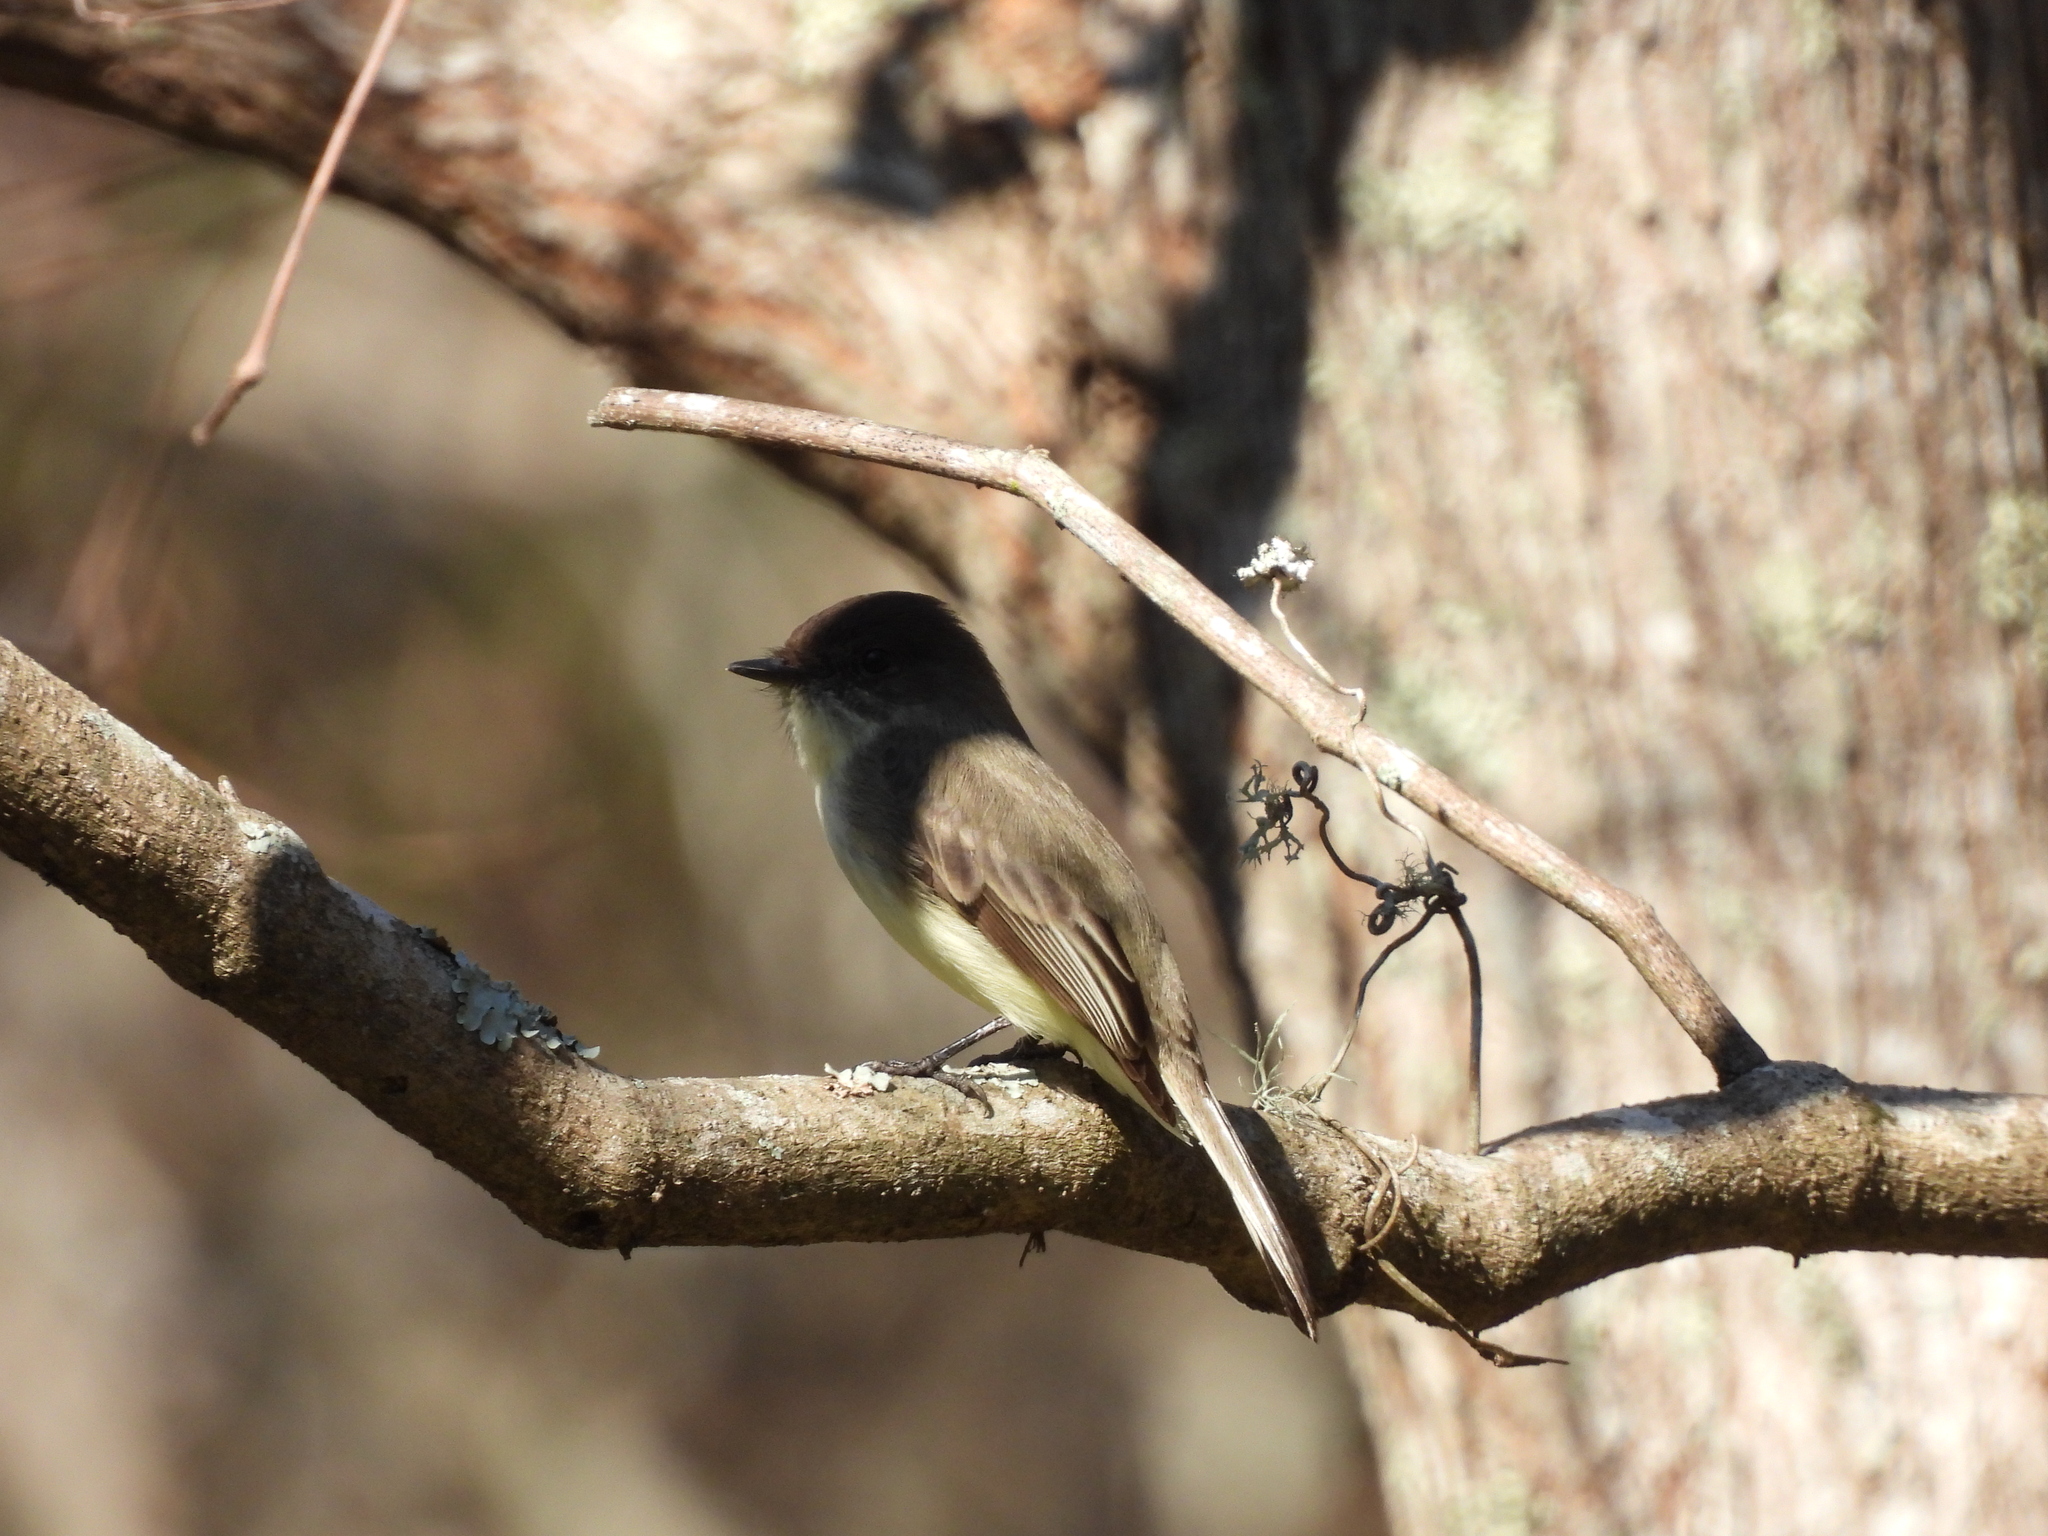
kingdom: Animalia
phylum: Chordata
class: Aves
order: Passeriformes
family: Tyrannidae
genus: Sayornis
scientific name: Sayornis phoebe
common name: Eastern phoebe
